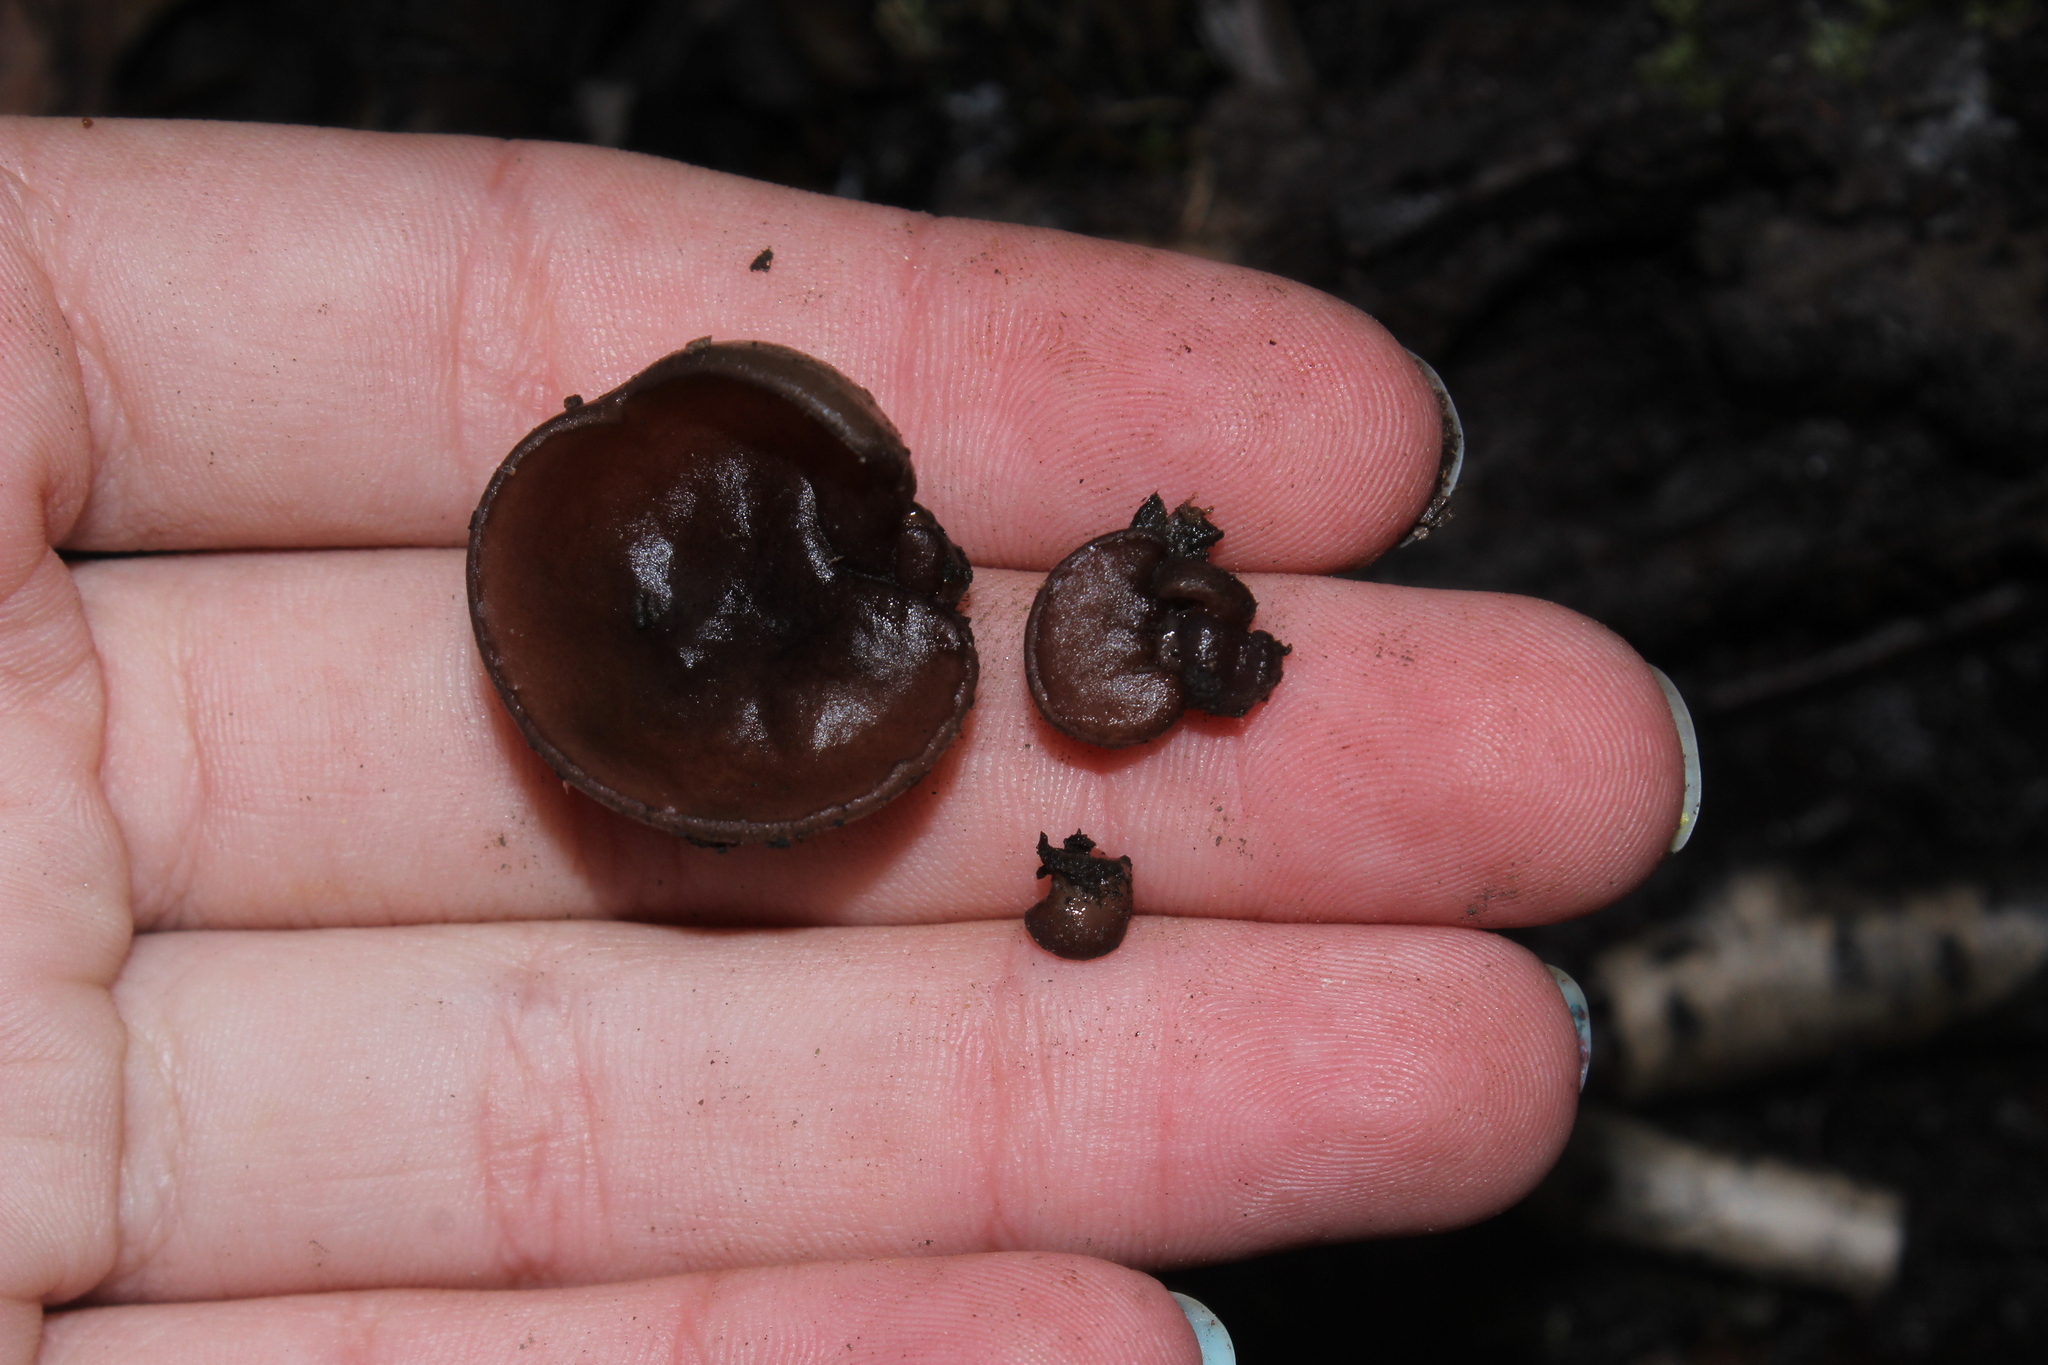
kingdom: Fungi
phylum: Ascomycota
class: Pezizomycetes
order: Pezizales
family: Pezizaceae
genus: Pachyella
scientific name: Pachyella clypeata
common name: Copper penny fungus
